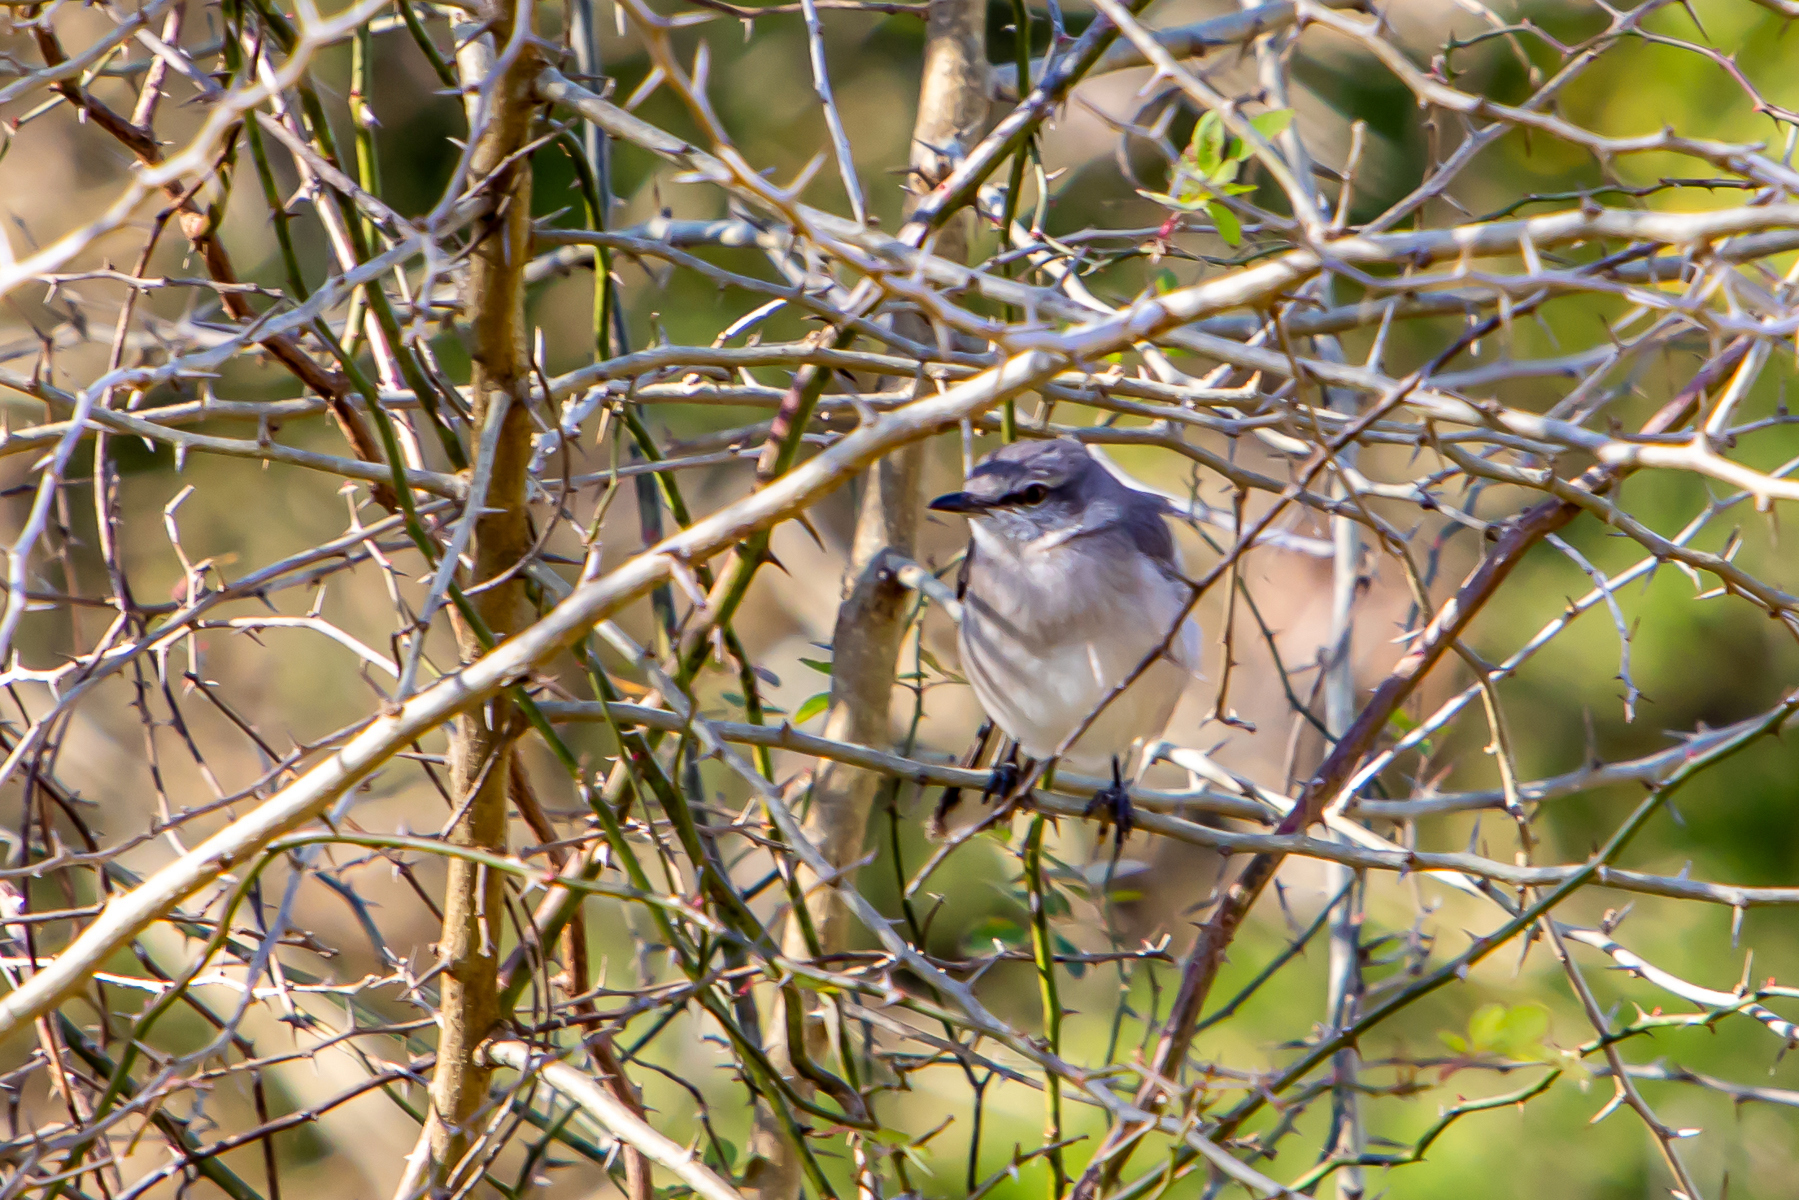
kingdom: Animalia
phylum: Chordata
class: Aves
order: Passeriformes
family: Mimidae
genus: Mimus
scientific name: Mimus polyglottos
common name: Northern mockingbird
